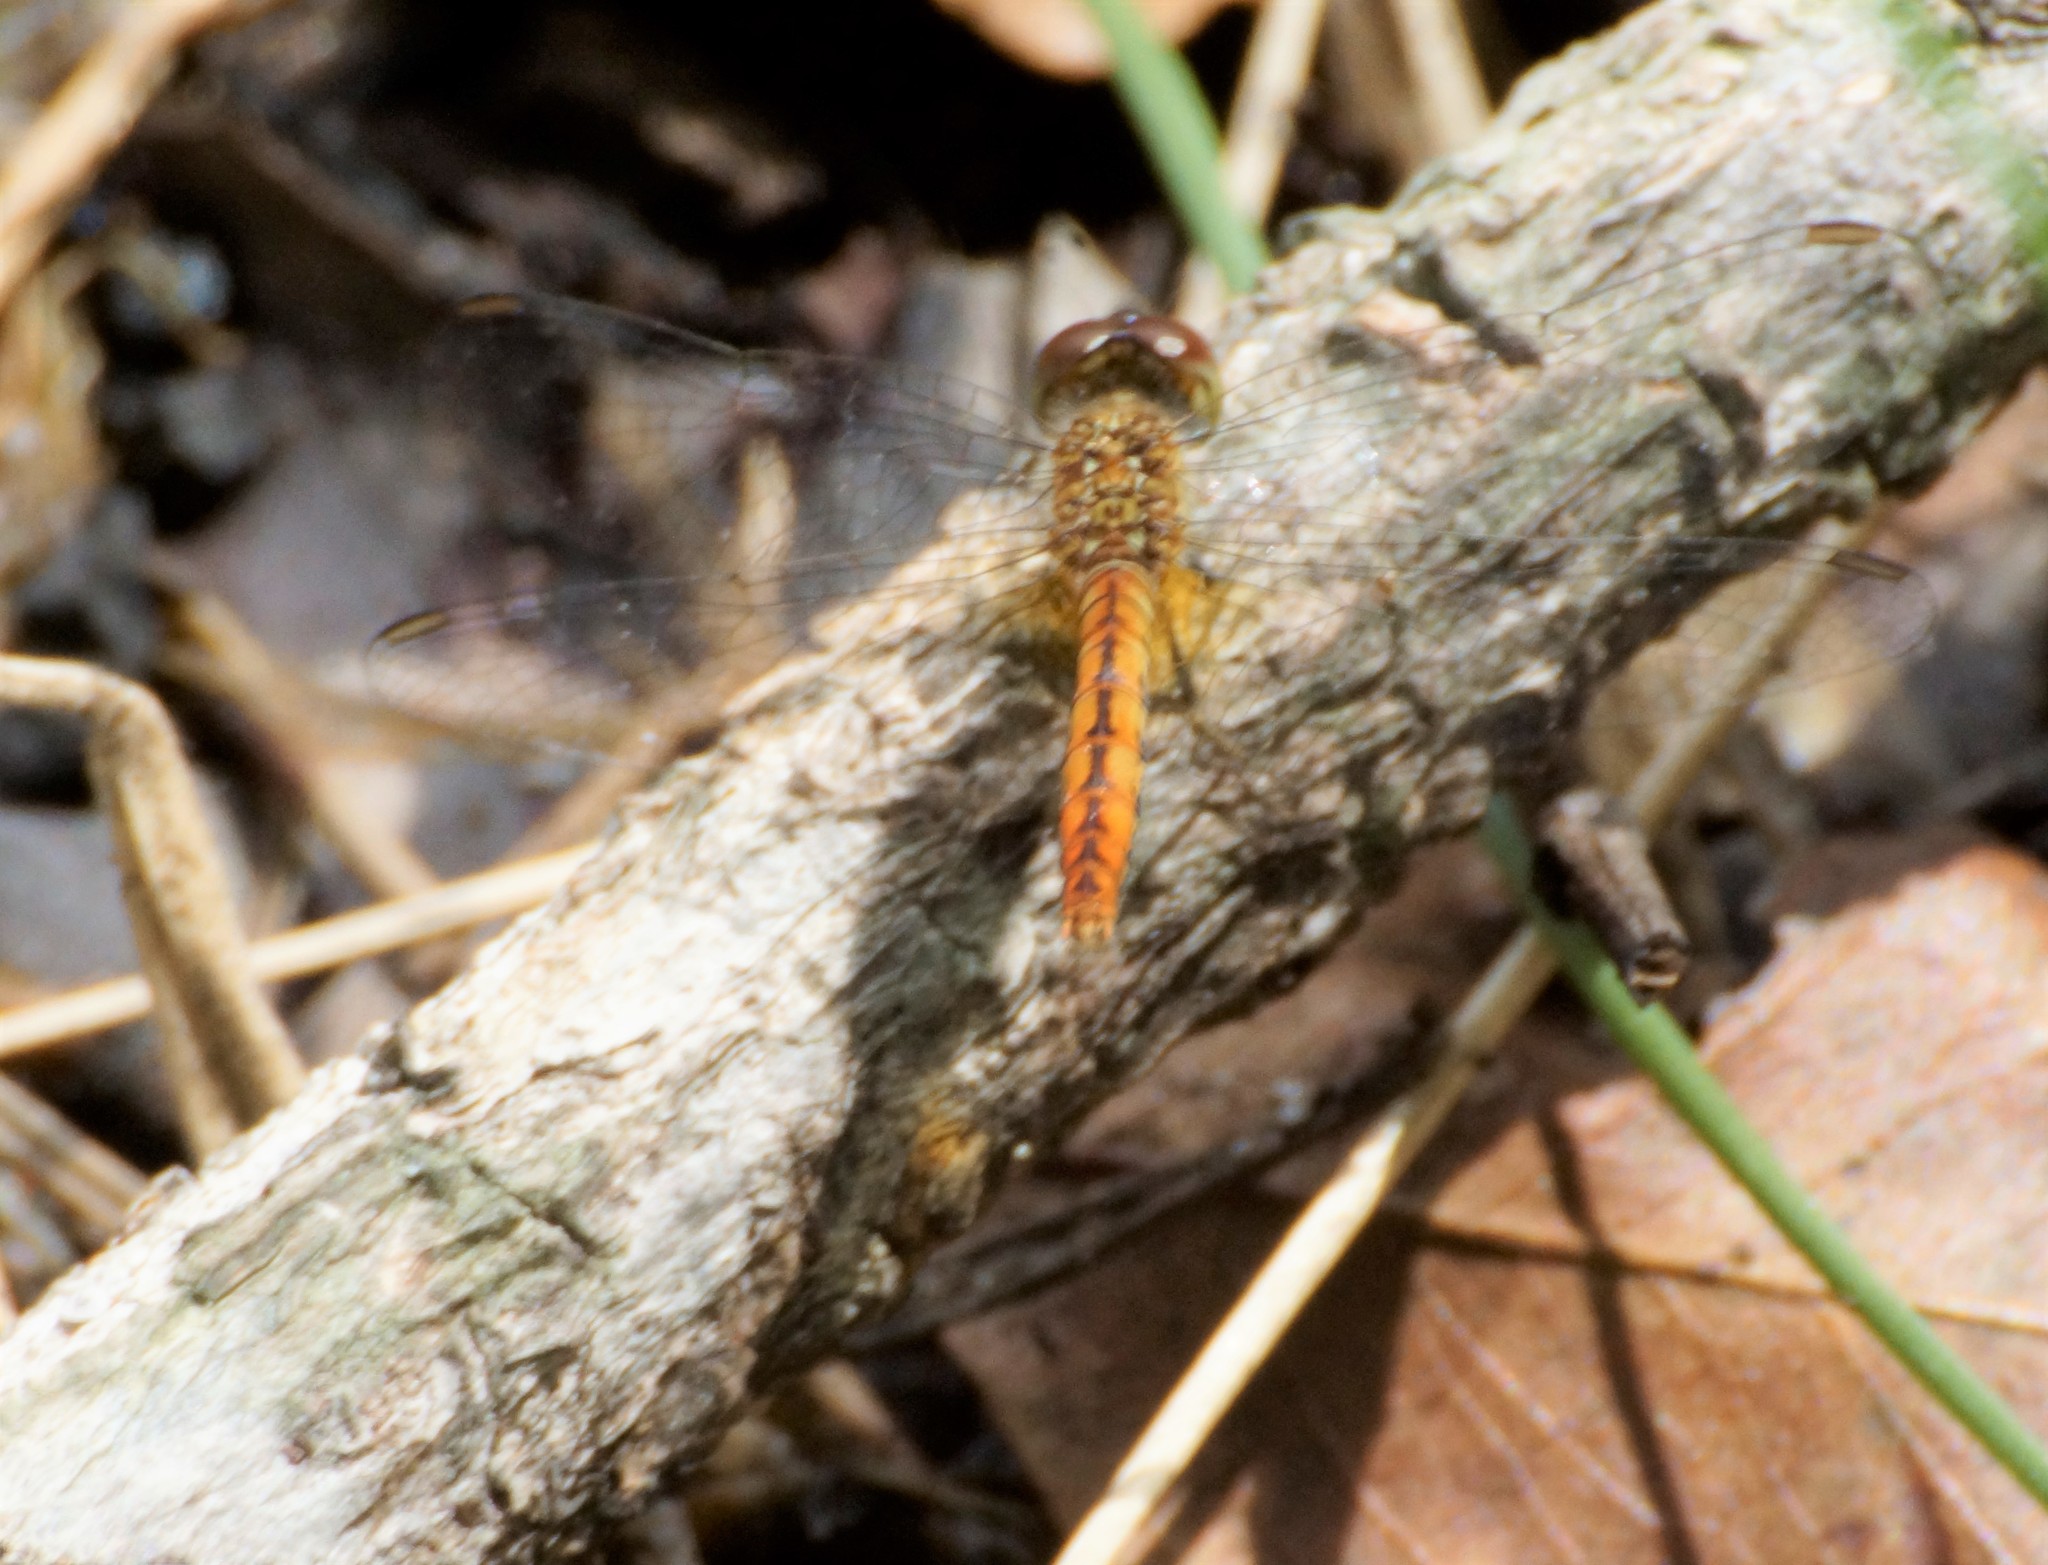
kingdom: Animalia
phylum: Arthropoda
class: Insecta
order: Odonata
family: Libellulidae
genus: Nannodiplax
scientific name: Nannodiplax rubra
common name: Pygmy percher
